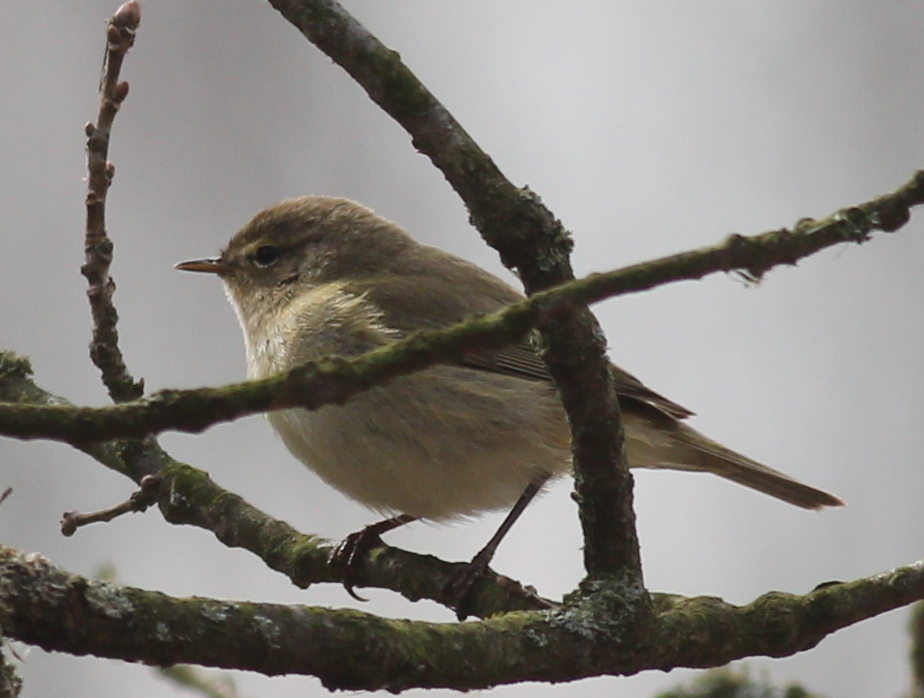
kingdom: Animalia
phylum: Chordata
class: Aves
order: Passeriformes
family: Phylloscopidae
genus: Phylloscopus
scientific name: Phylloscopus collybita
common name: Common chiffchaff
